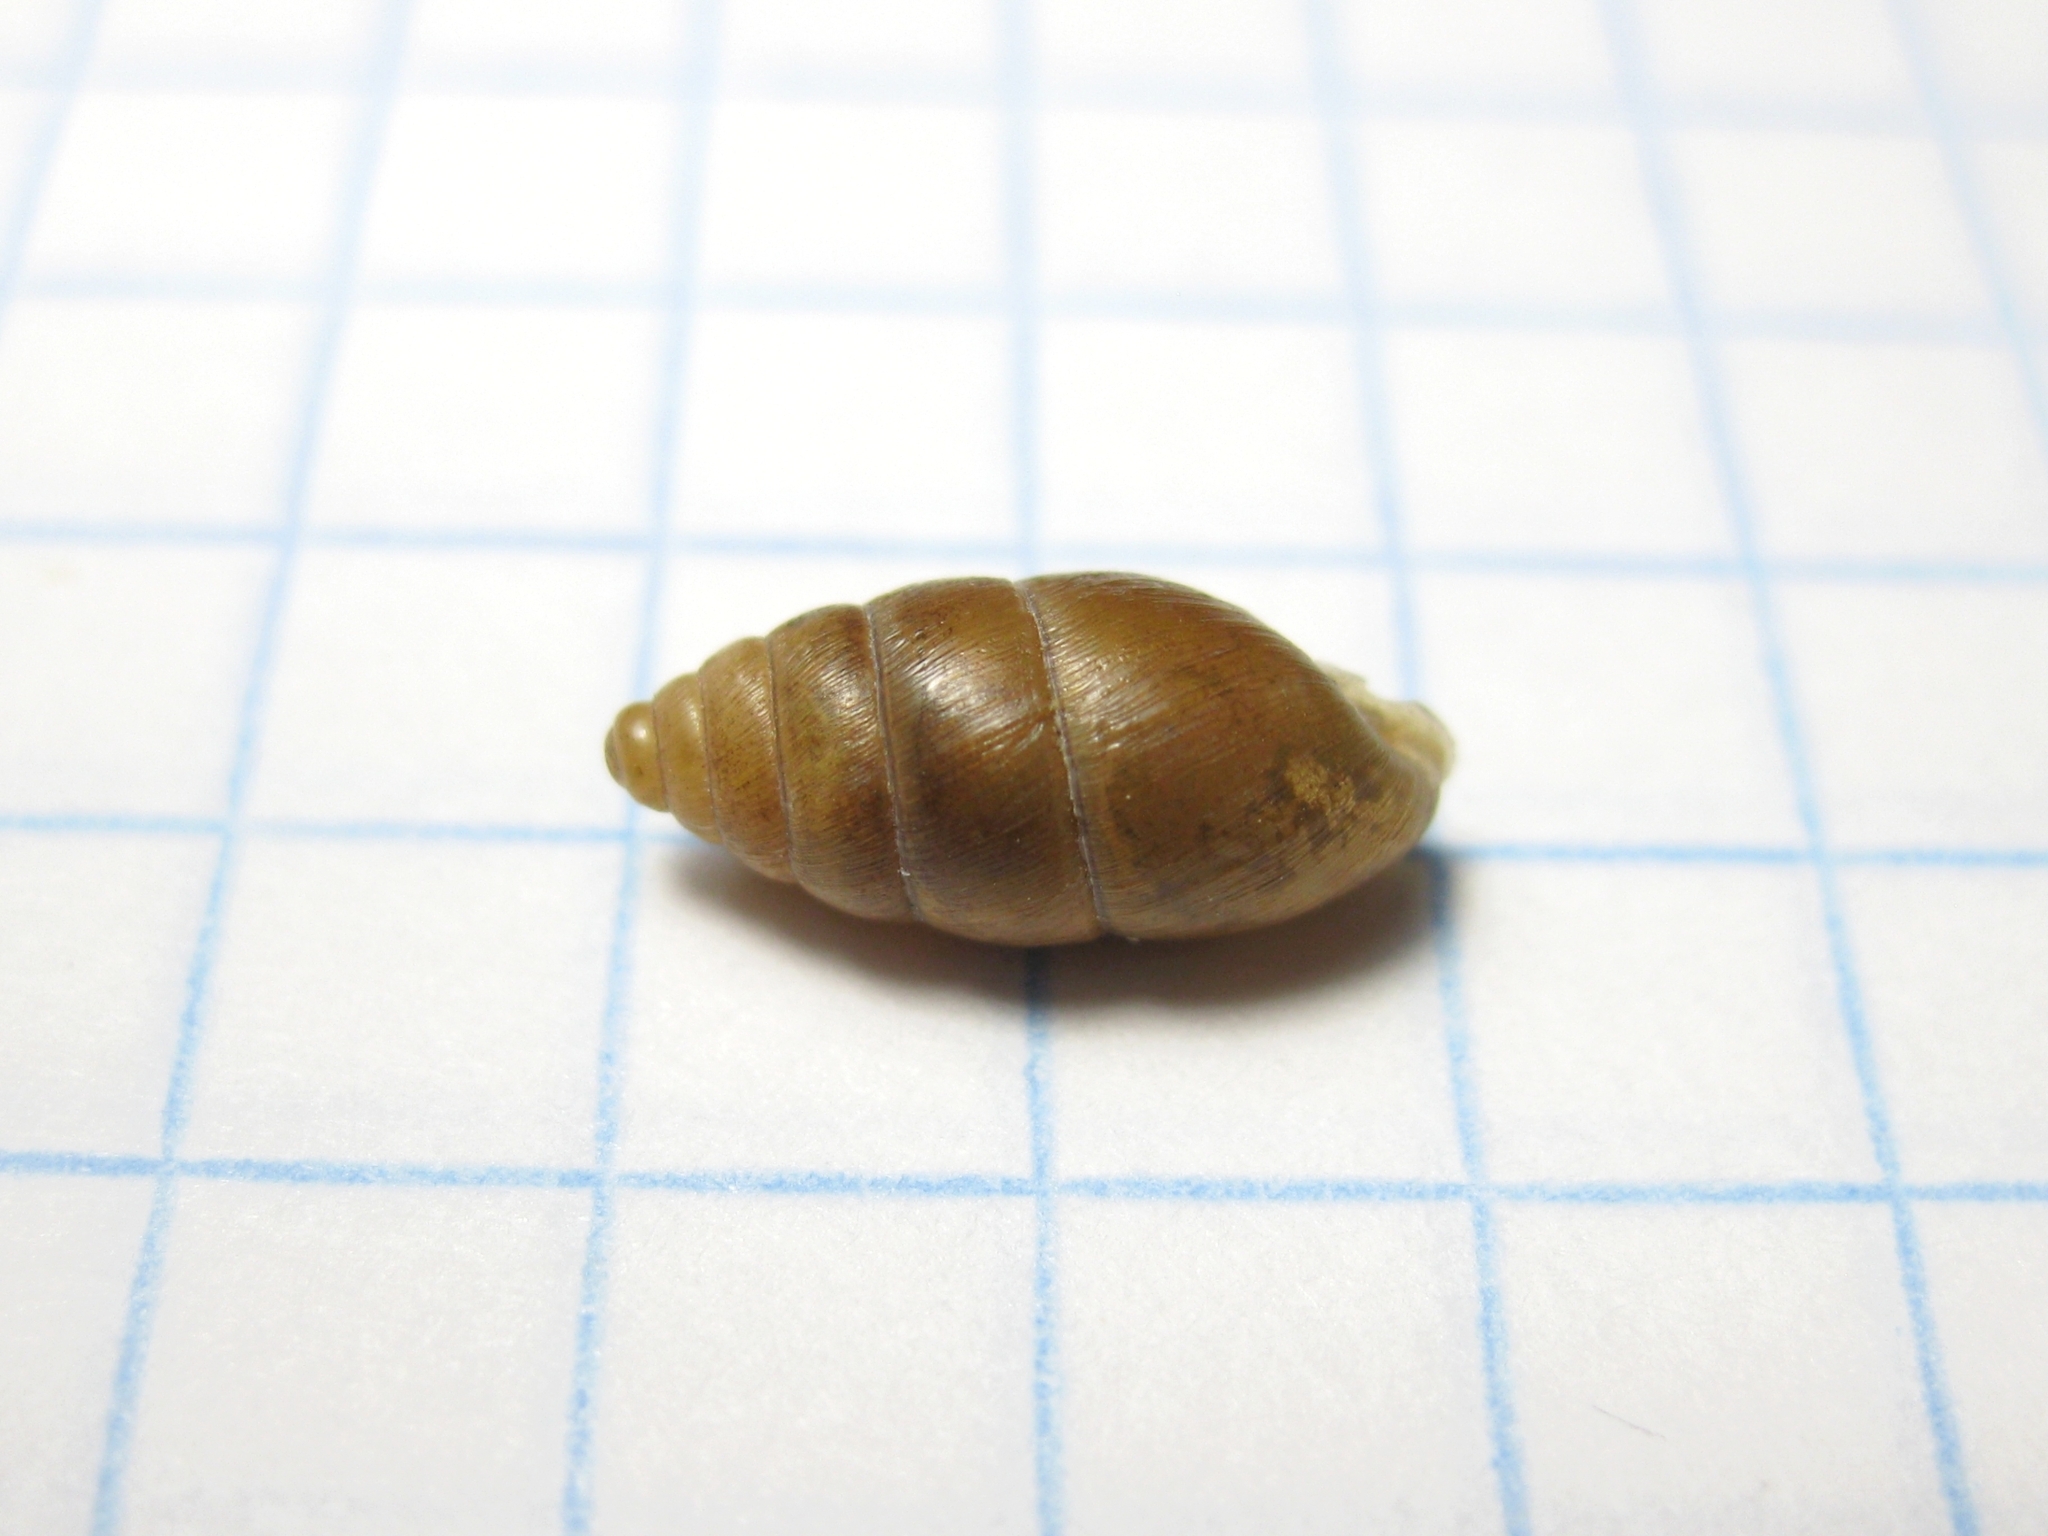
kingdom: Animalia
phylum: Mollusca
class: Gastropoda
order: Stylommatophora
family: Enidae
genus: Chondrula
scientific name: Chondrula tridens
